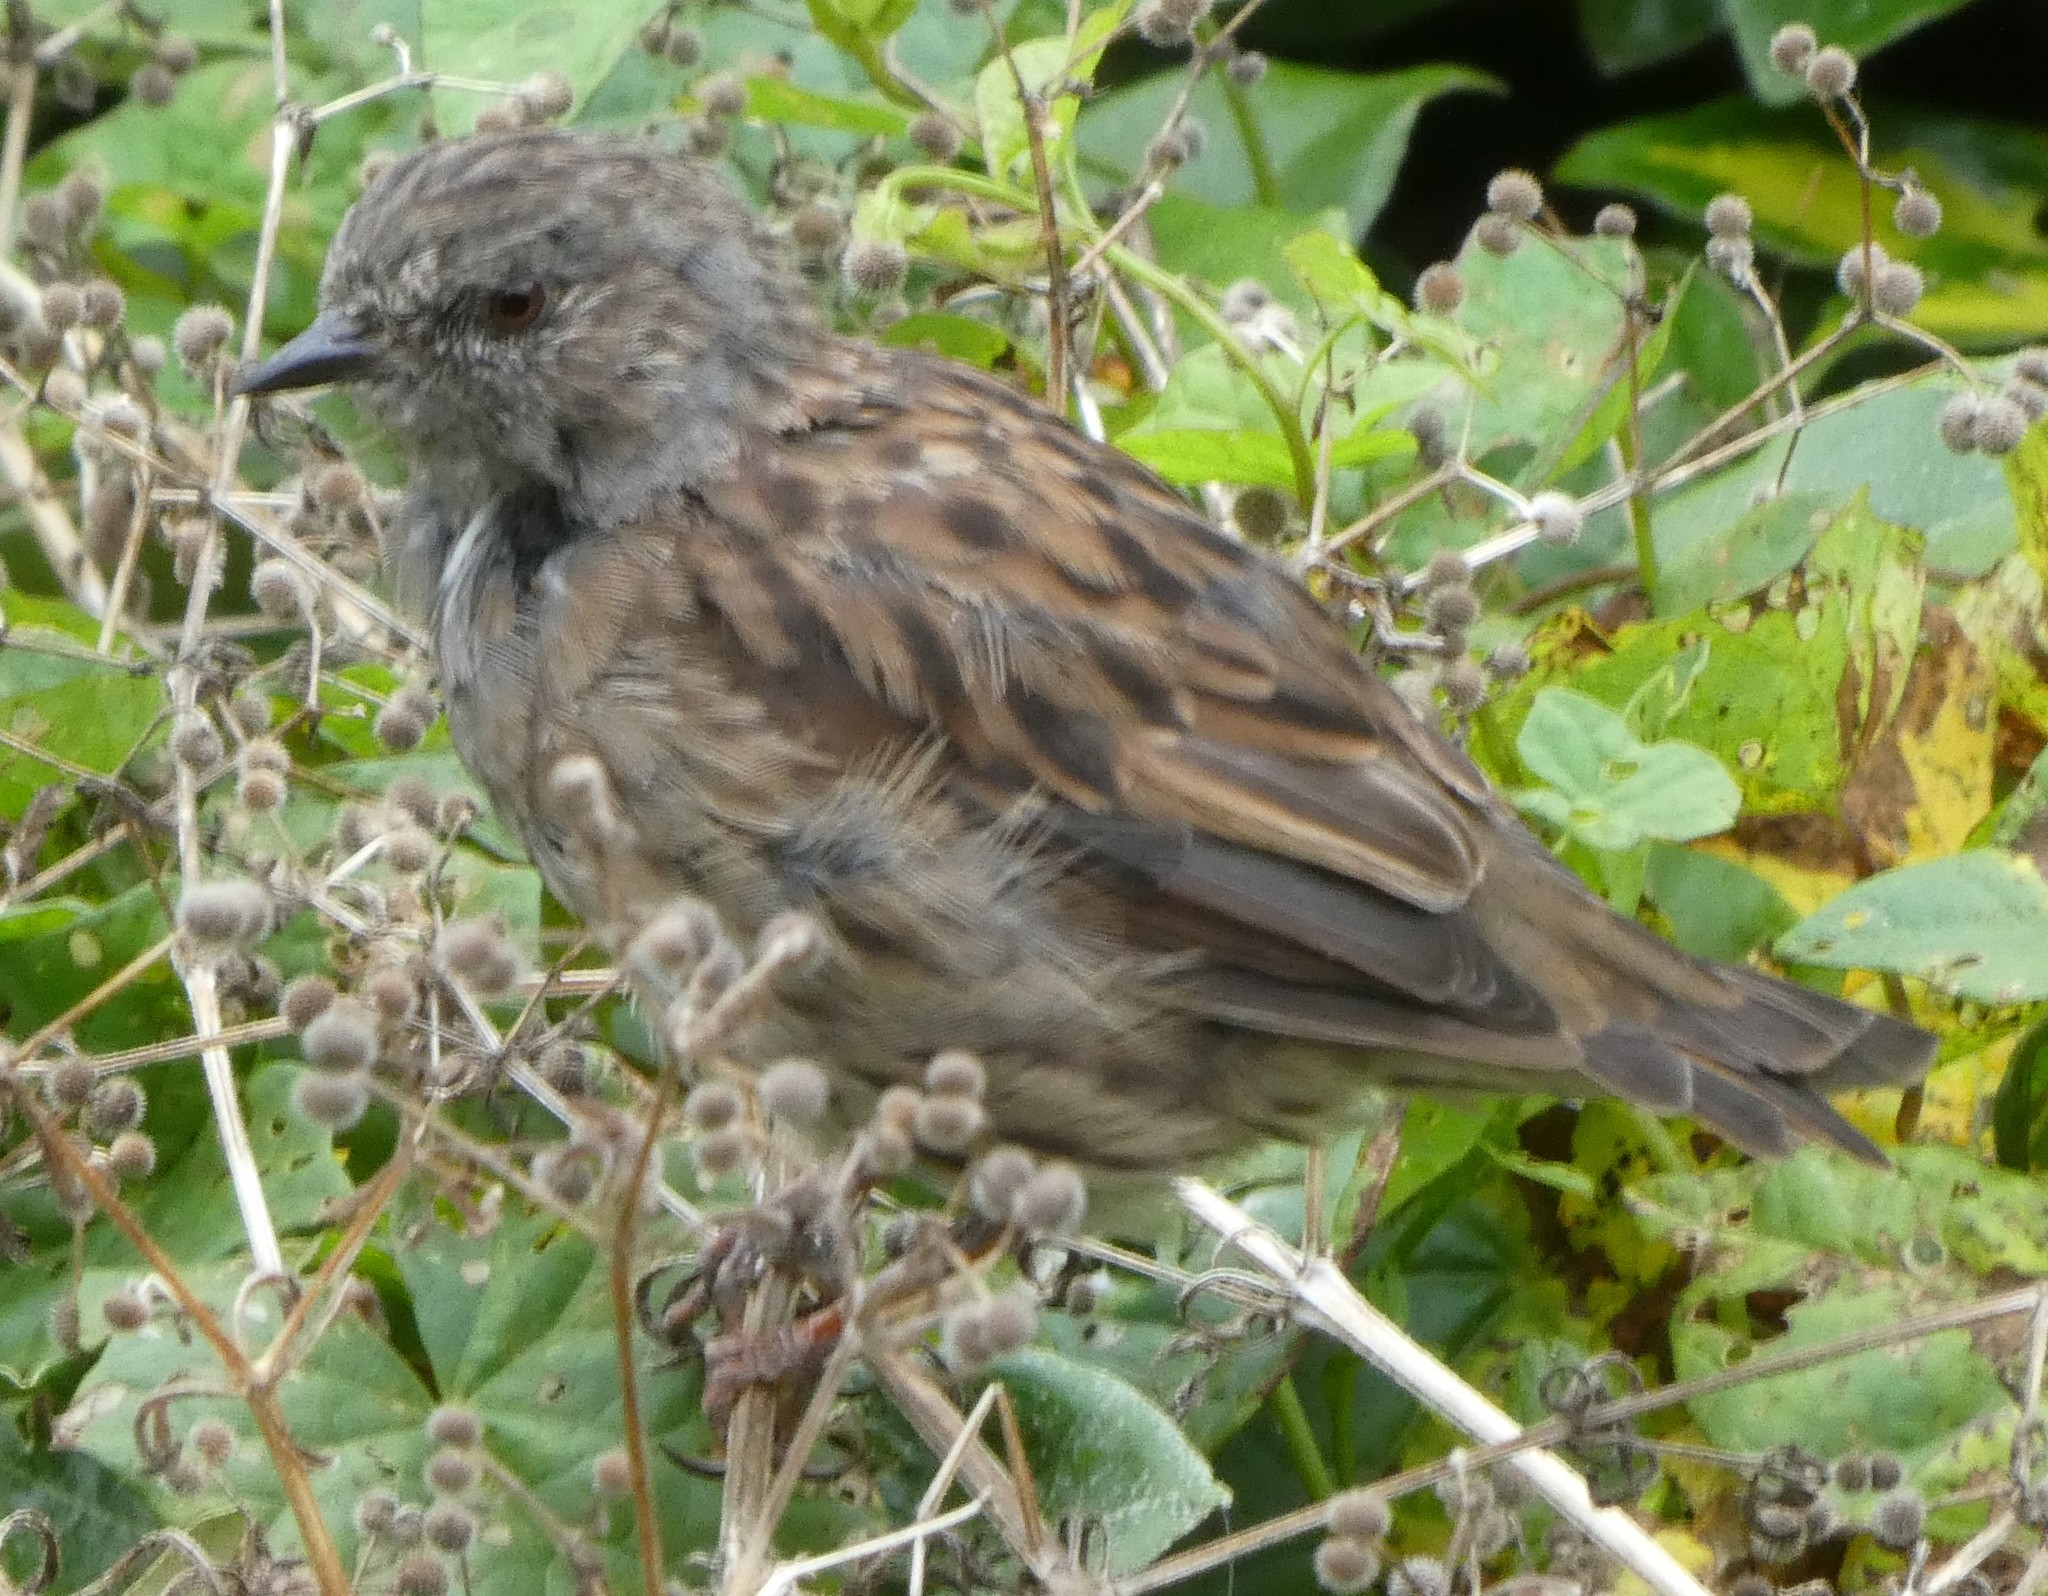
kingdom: Animalia
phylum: Chordata
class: Aves
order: Passeriformes
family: Prunellidae
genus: Prunella
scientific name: Prunella modularis
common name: Dunnock
